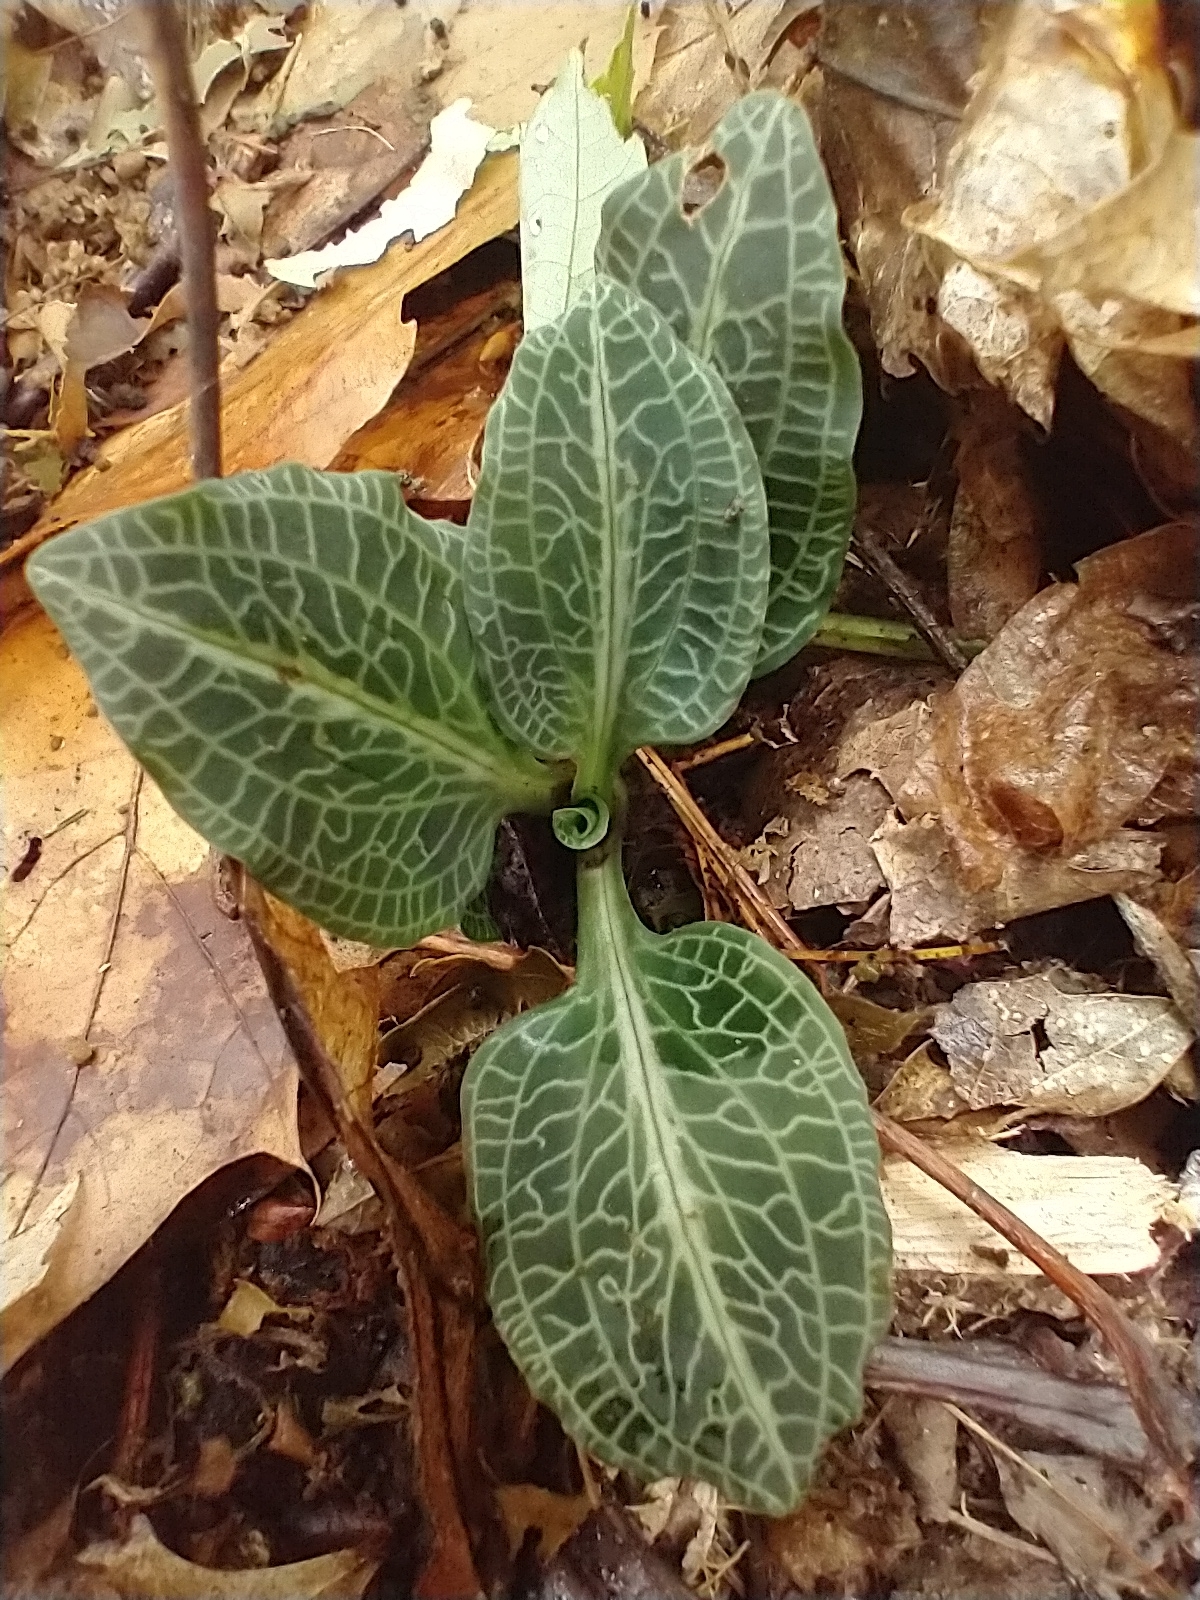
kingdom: Plantae
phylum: Tracheophyta
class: Liliopsida
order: Asparagales
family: Orchidaceae
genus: Goodyera
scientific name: Goodyera pubescens
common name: Downy rattlesnake-plantain
